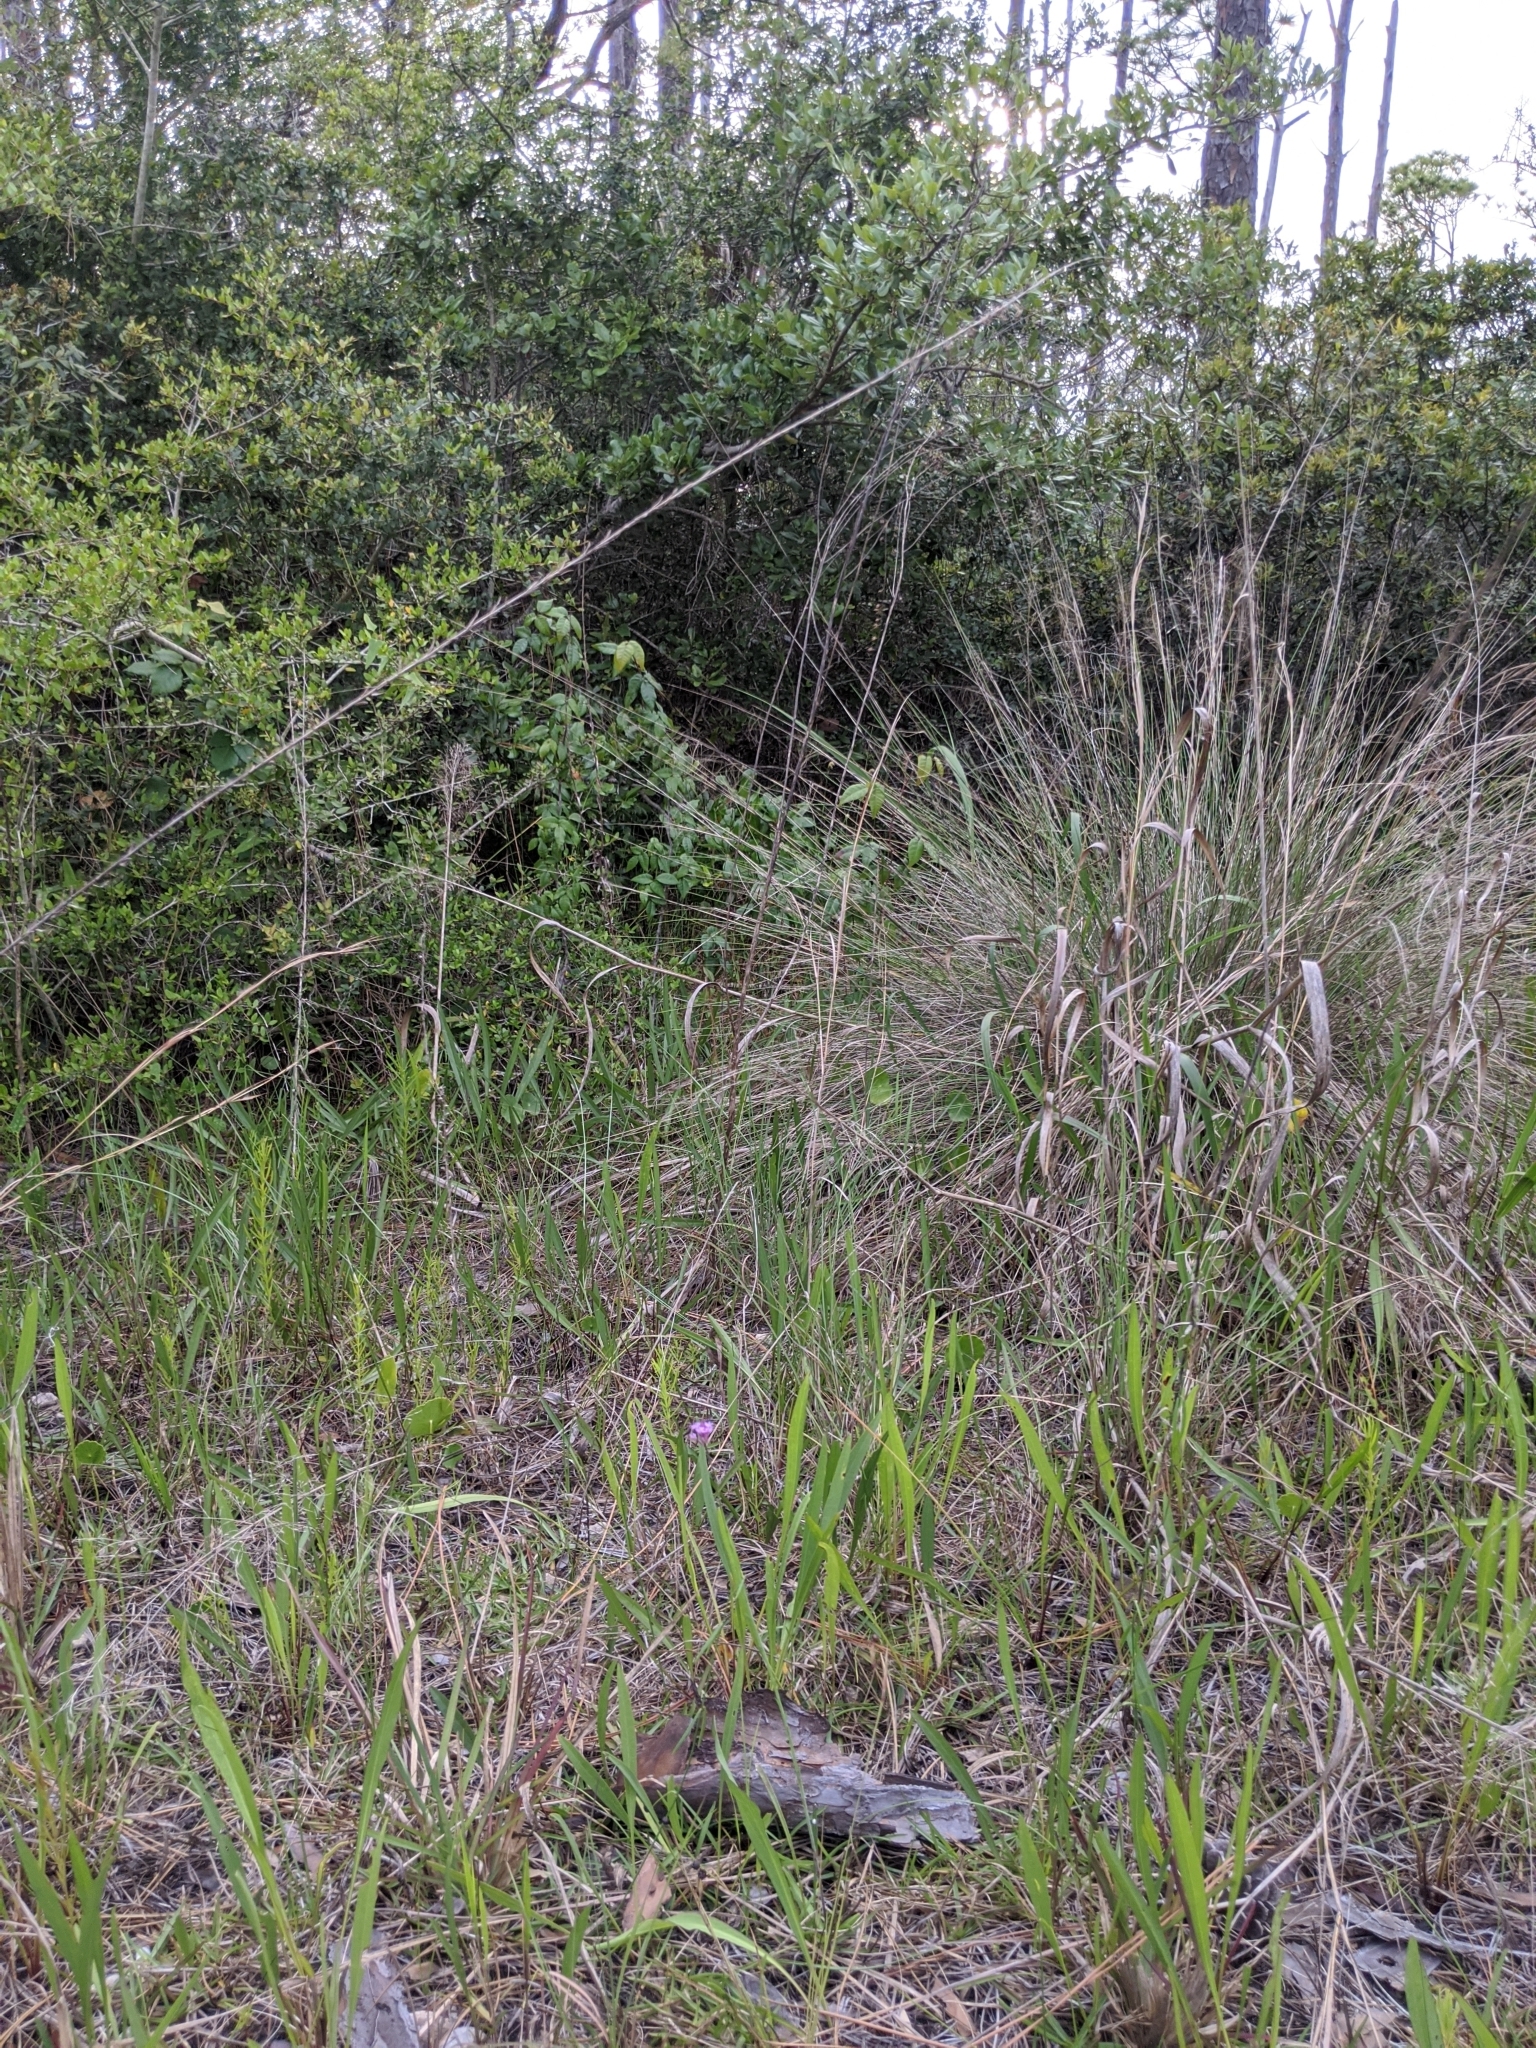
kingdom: Plantae
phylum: Tracheophyta
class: Magnoliopsida
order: Fabales
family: Polygalaceae
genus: Polygala
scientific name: Polygala incarnata
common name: Pink milkwort
